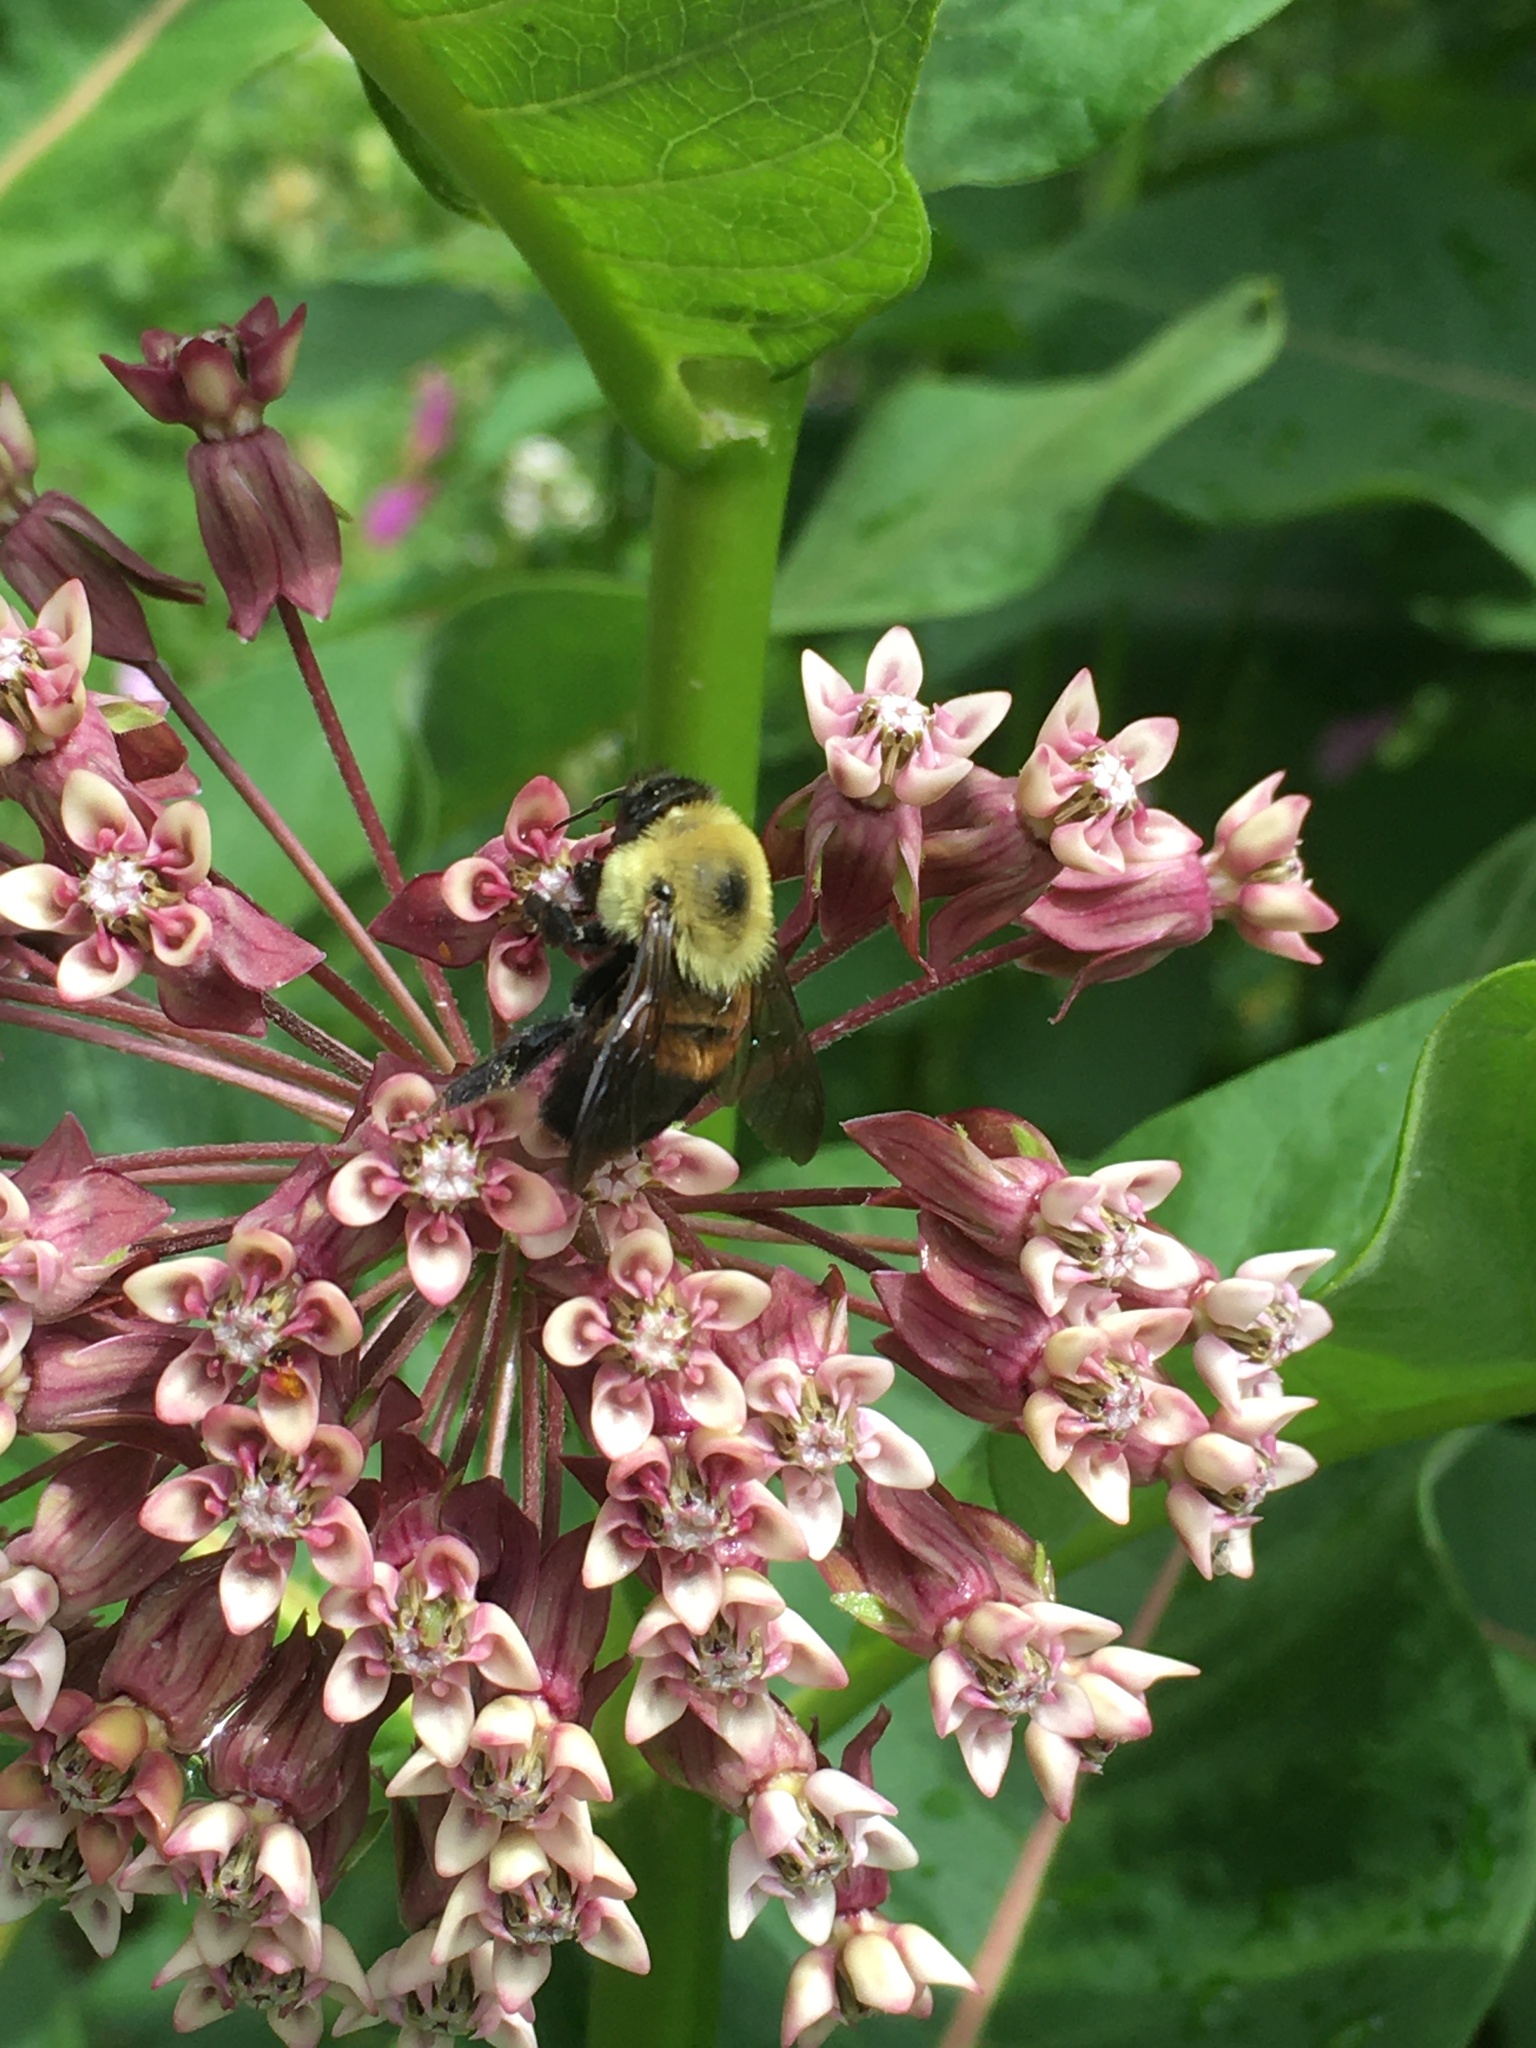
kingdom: Animalia
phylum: Arthropoda
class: Insecta
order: Hymenoptera
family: Apidae
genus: Bombus
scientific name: Bombus griseocollis
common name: Brown-belted bumble bee
